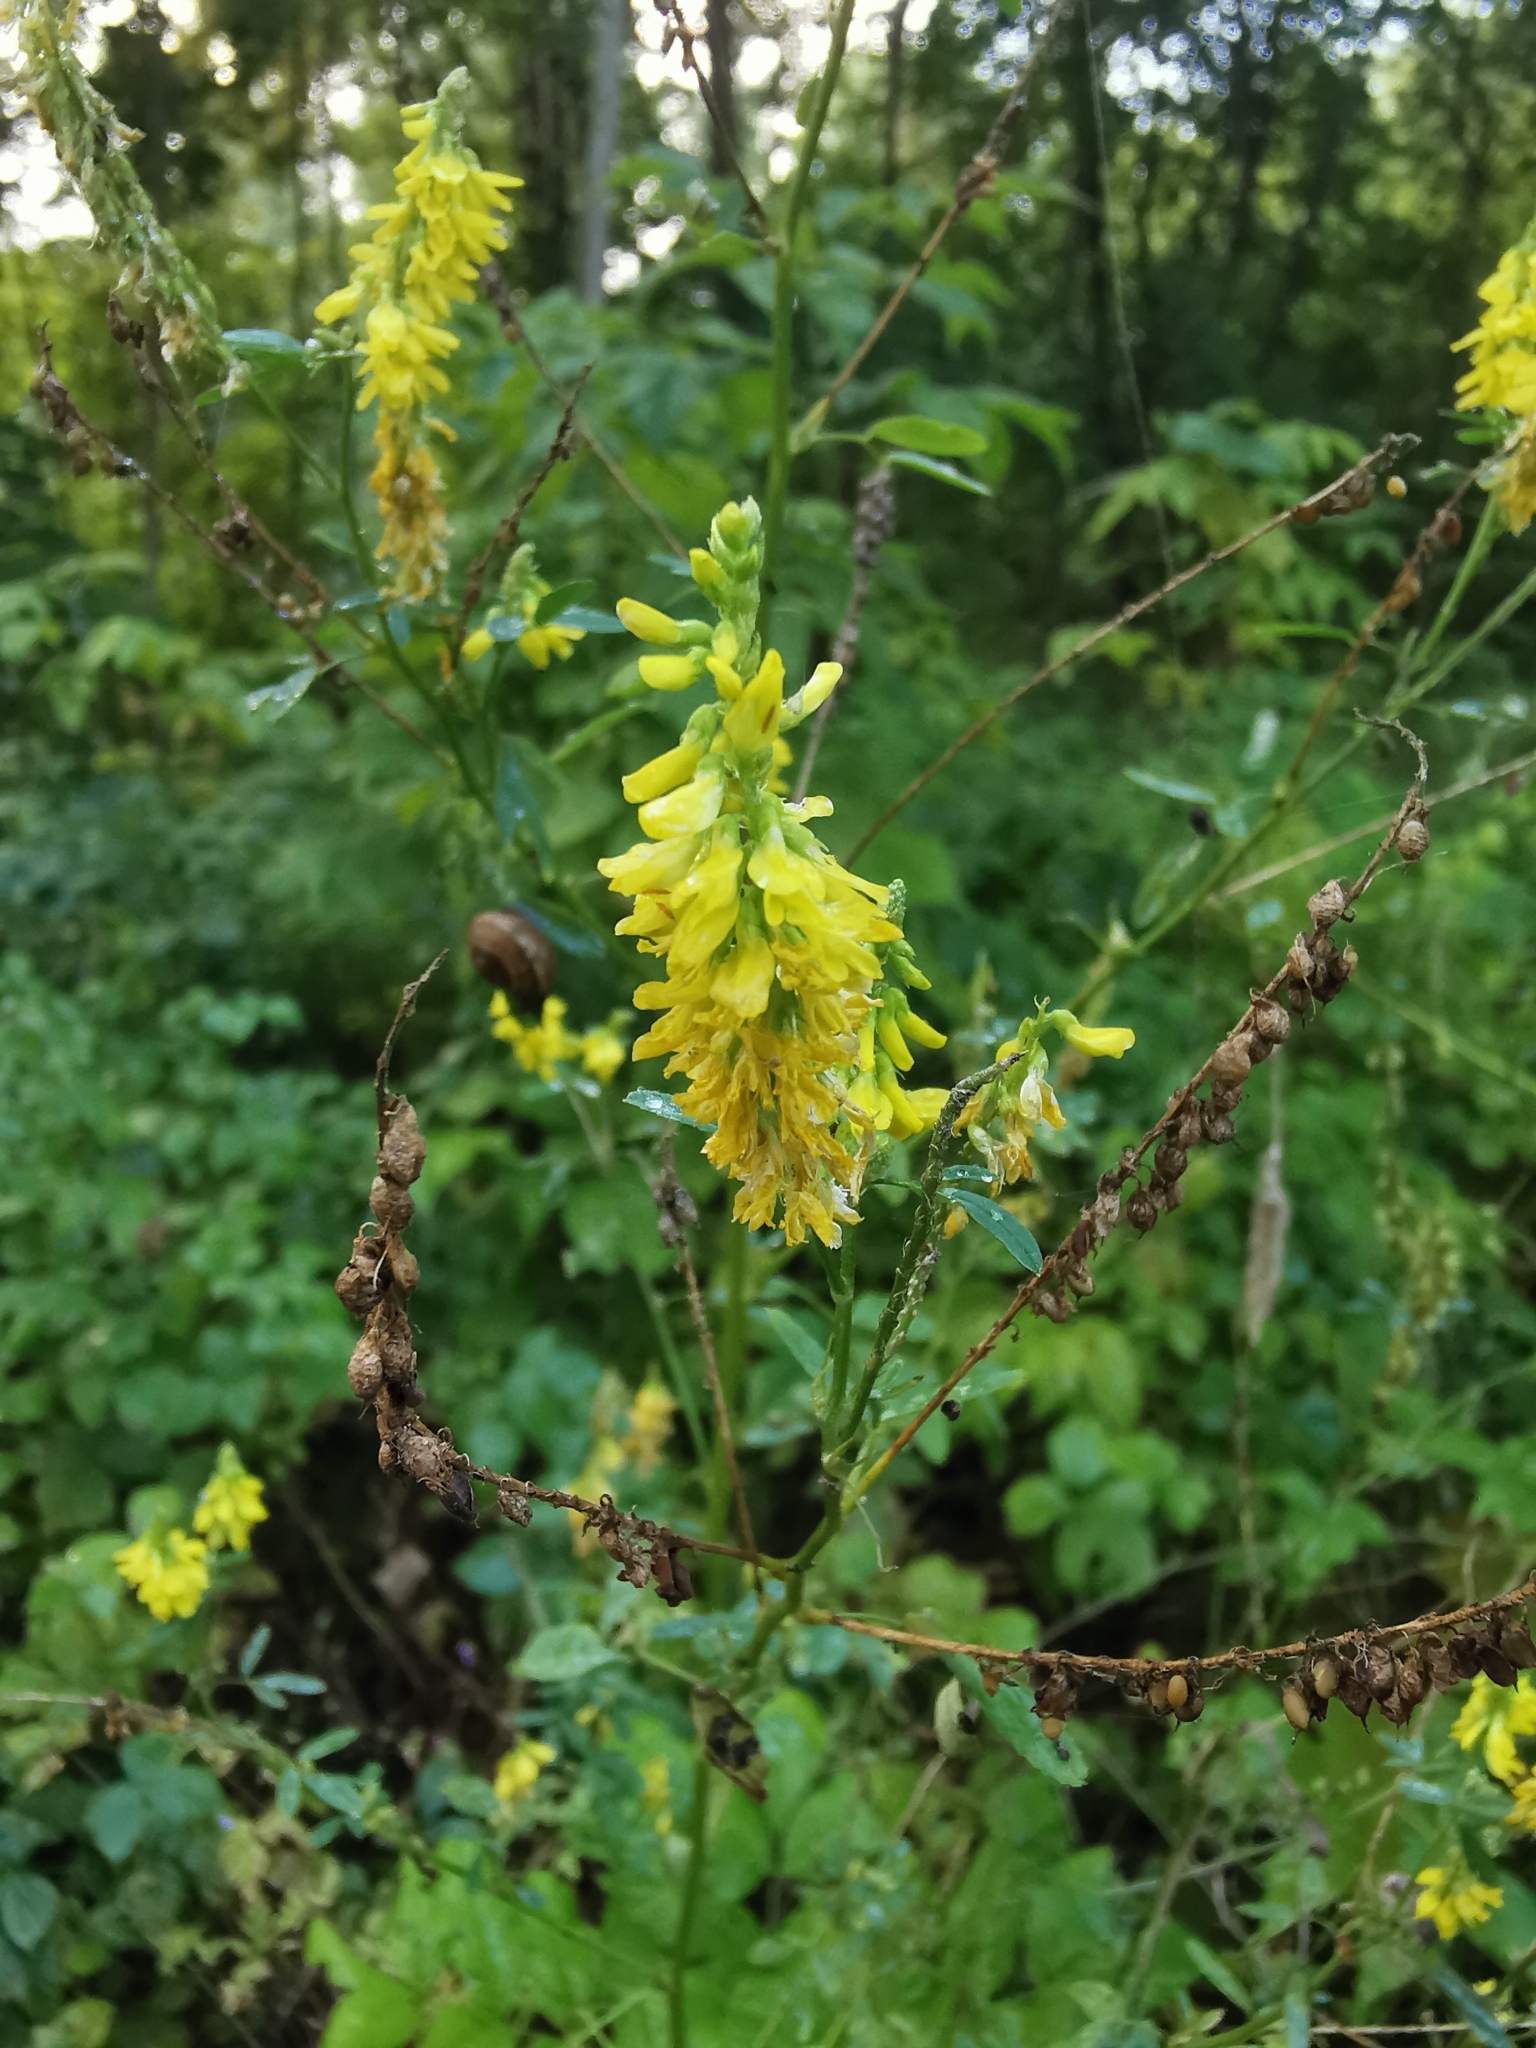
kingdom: Plantae
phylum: Tracheophyta
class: Magnoliopsida
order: Fabales
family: Fabaceae
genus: Melilotus
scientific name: Melilotus officinalis
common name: Sweetclover
